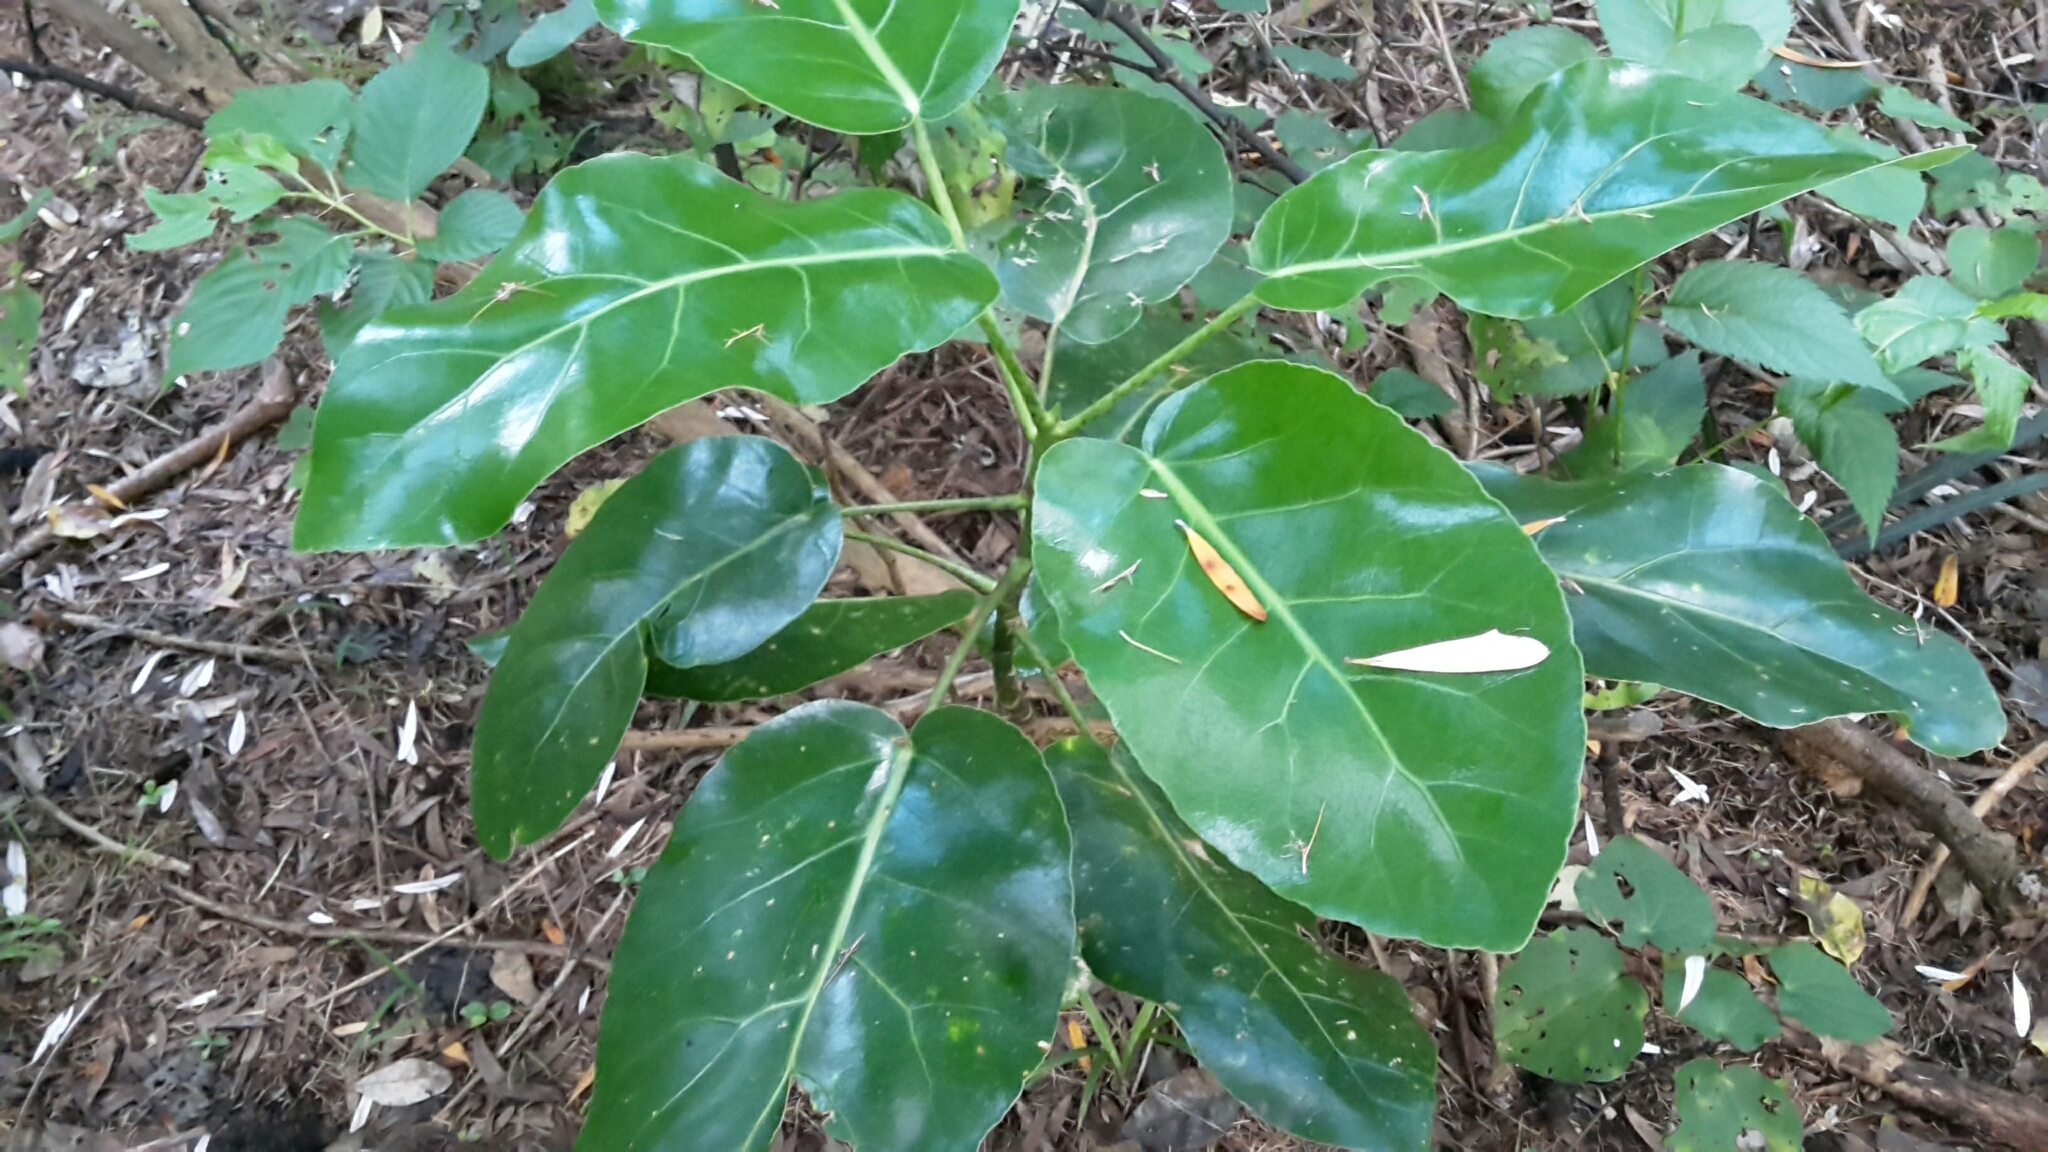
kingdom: Plantae
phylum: Tracheophyta
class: Magnoliopsida
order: Apiales
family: Araliaceae
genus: Meryta
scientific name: Meryta sinclairii
